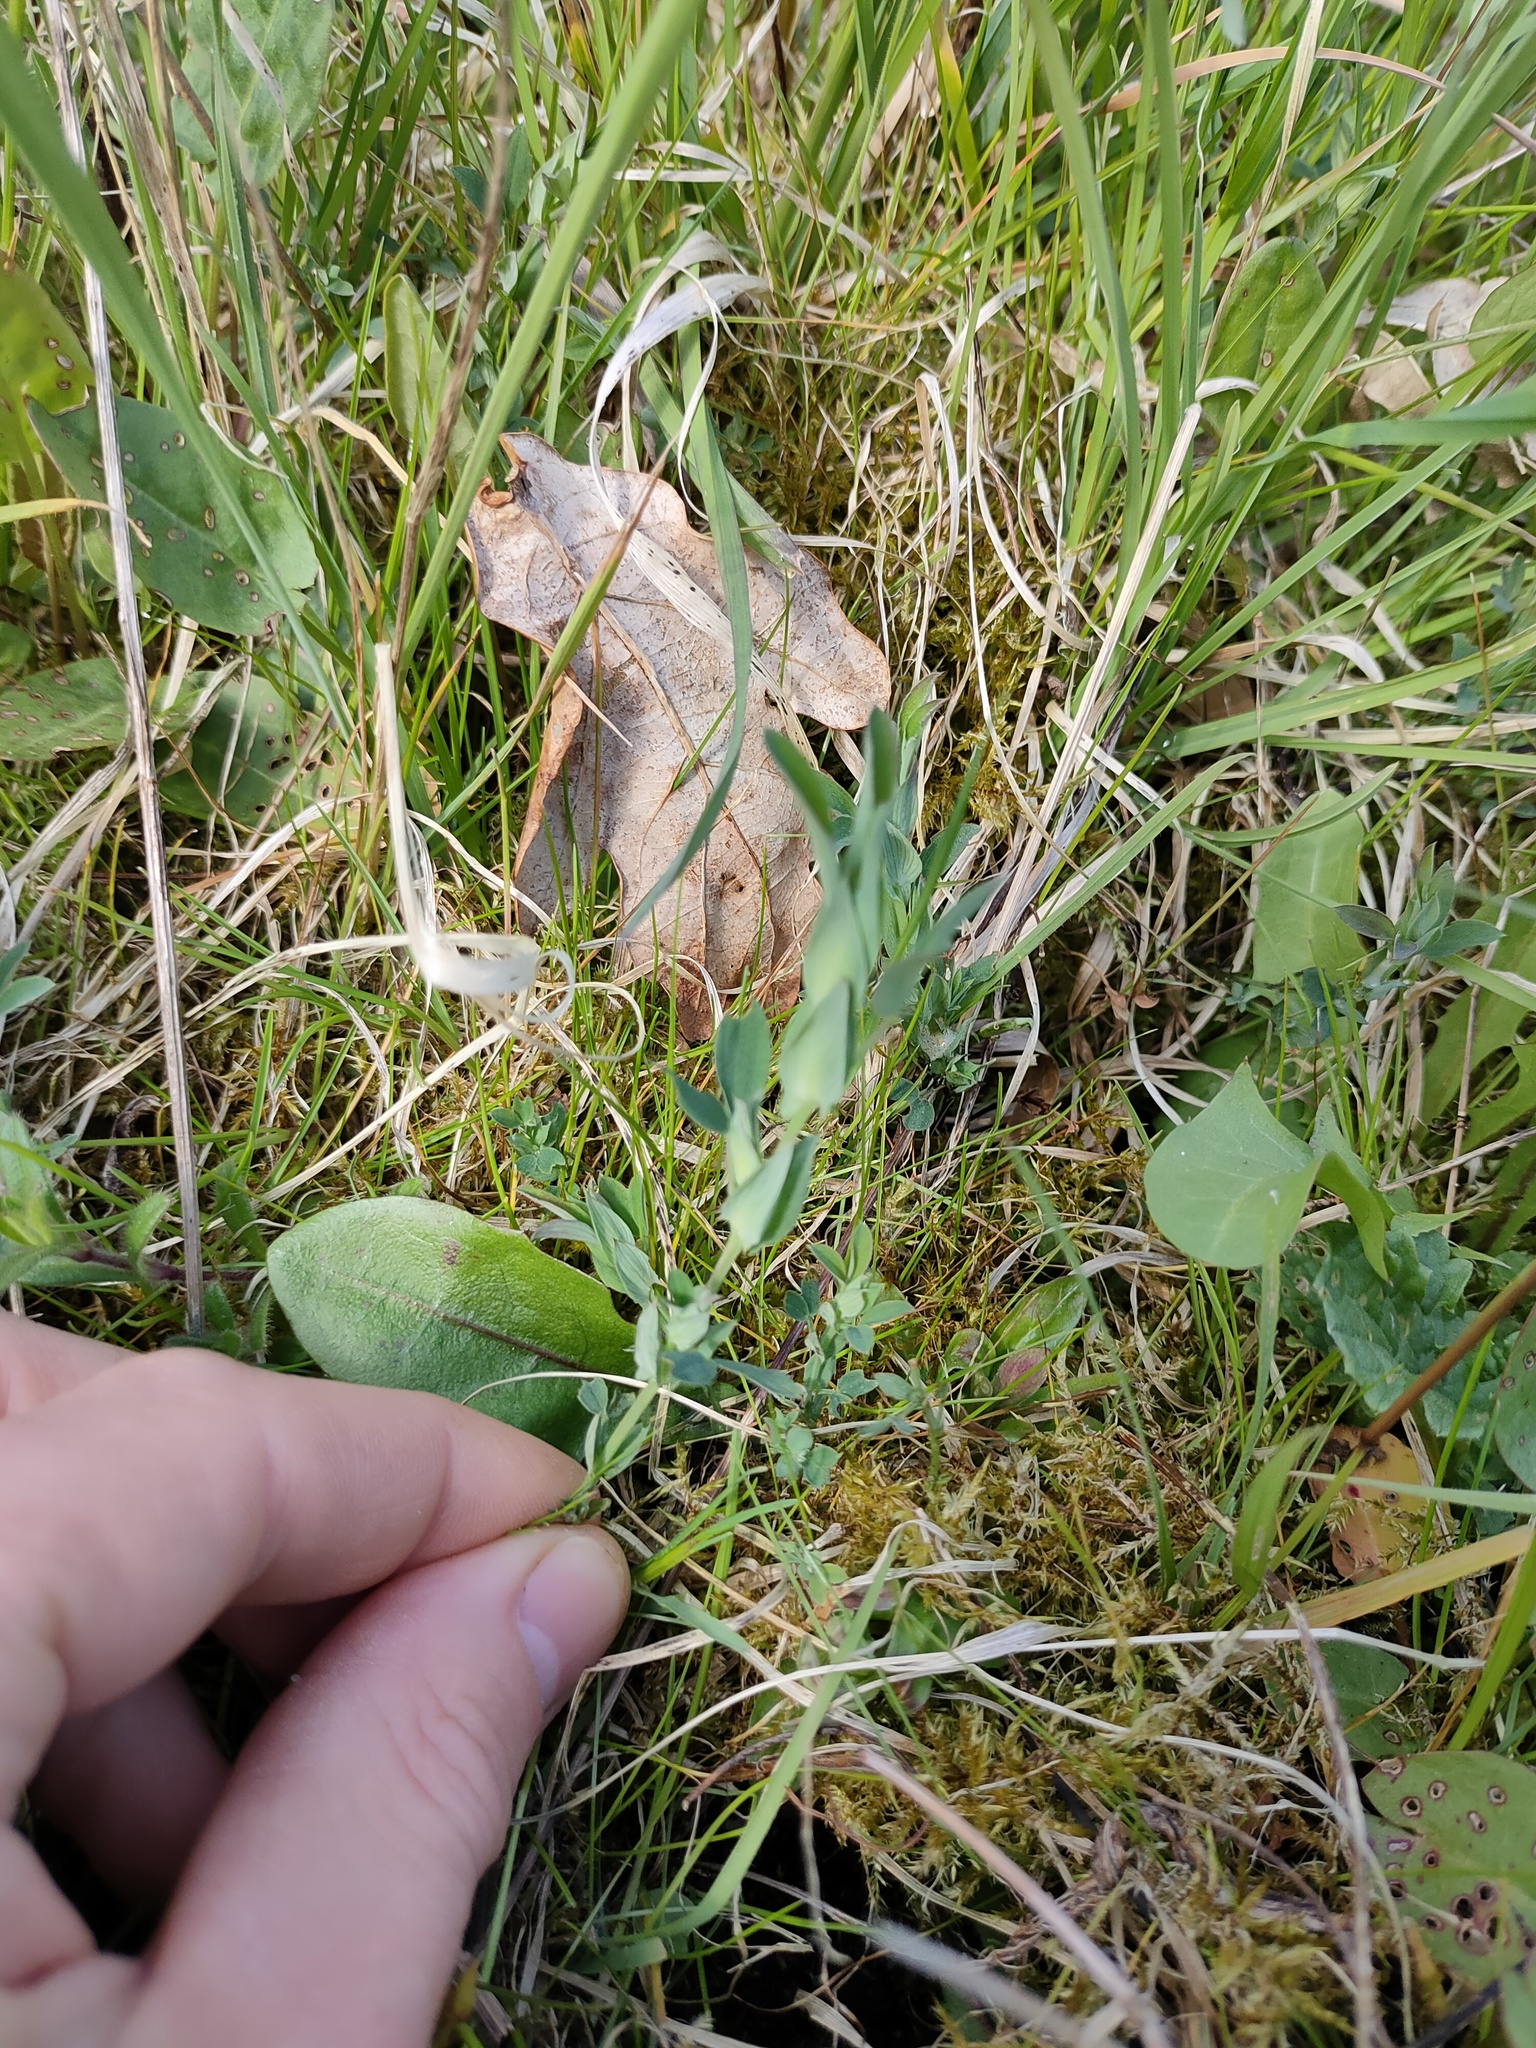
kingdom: Plantae
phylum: Tracheophyta
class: Magnoliopsida
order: Fabales
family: Fabaceae
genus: Lathyrus
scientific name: Lathyrus pratensis
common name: Meadow vetchling
